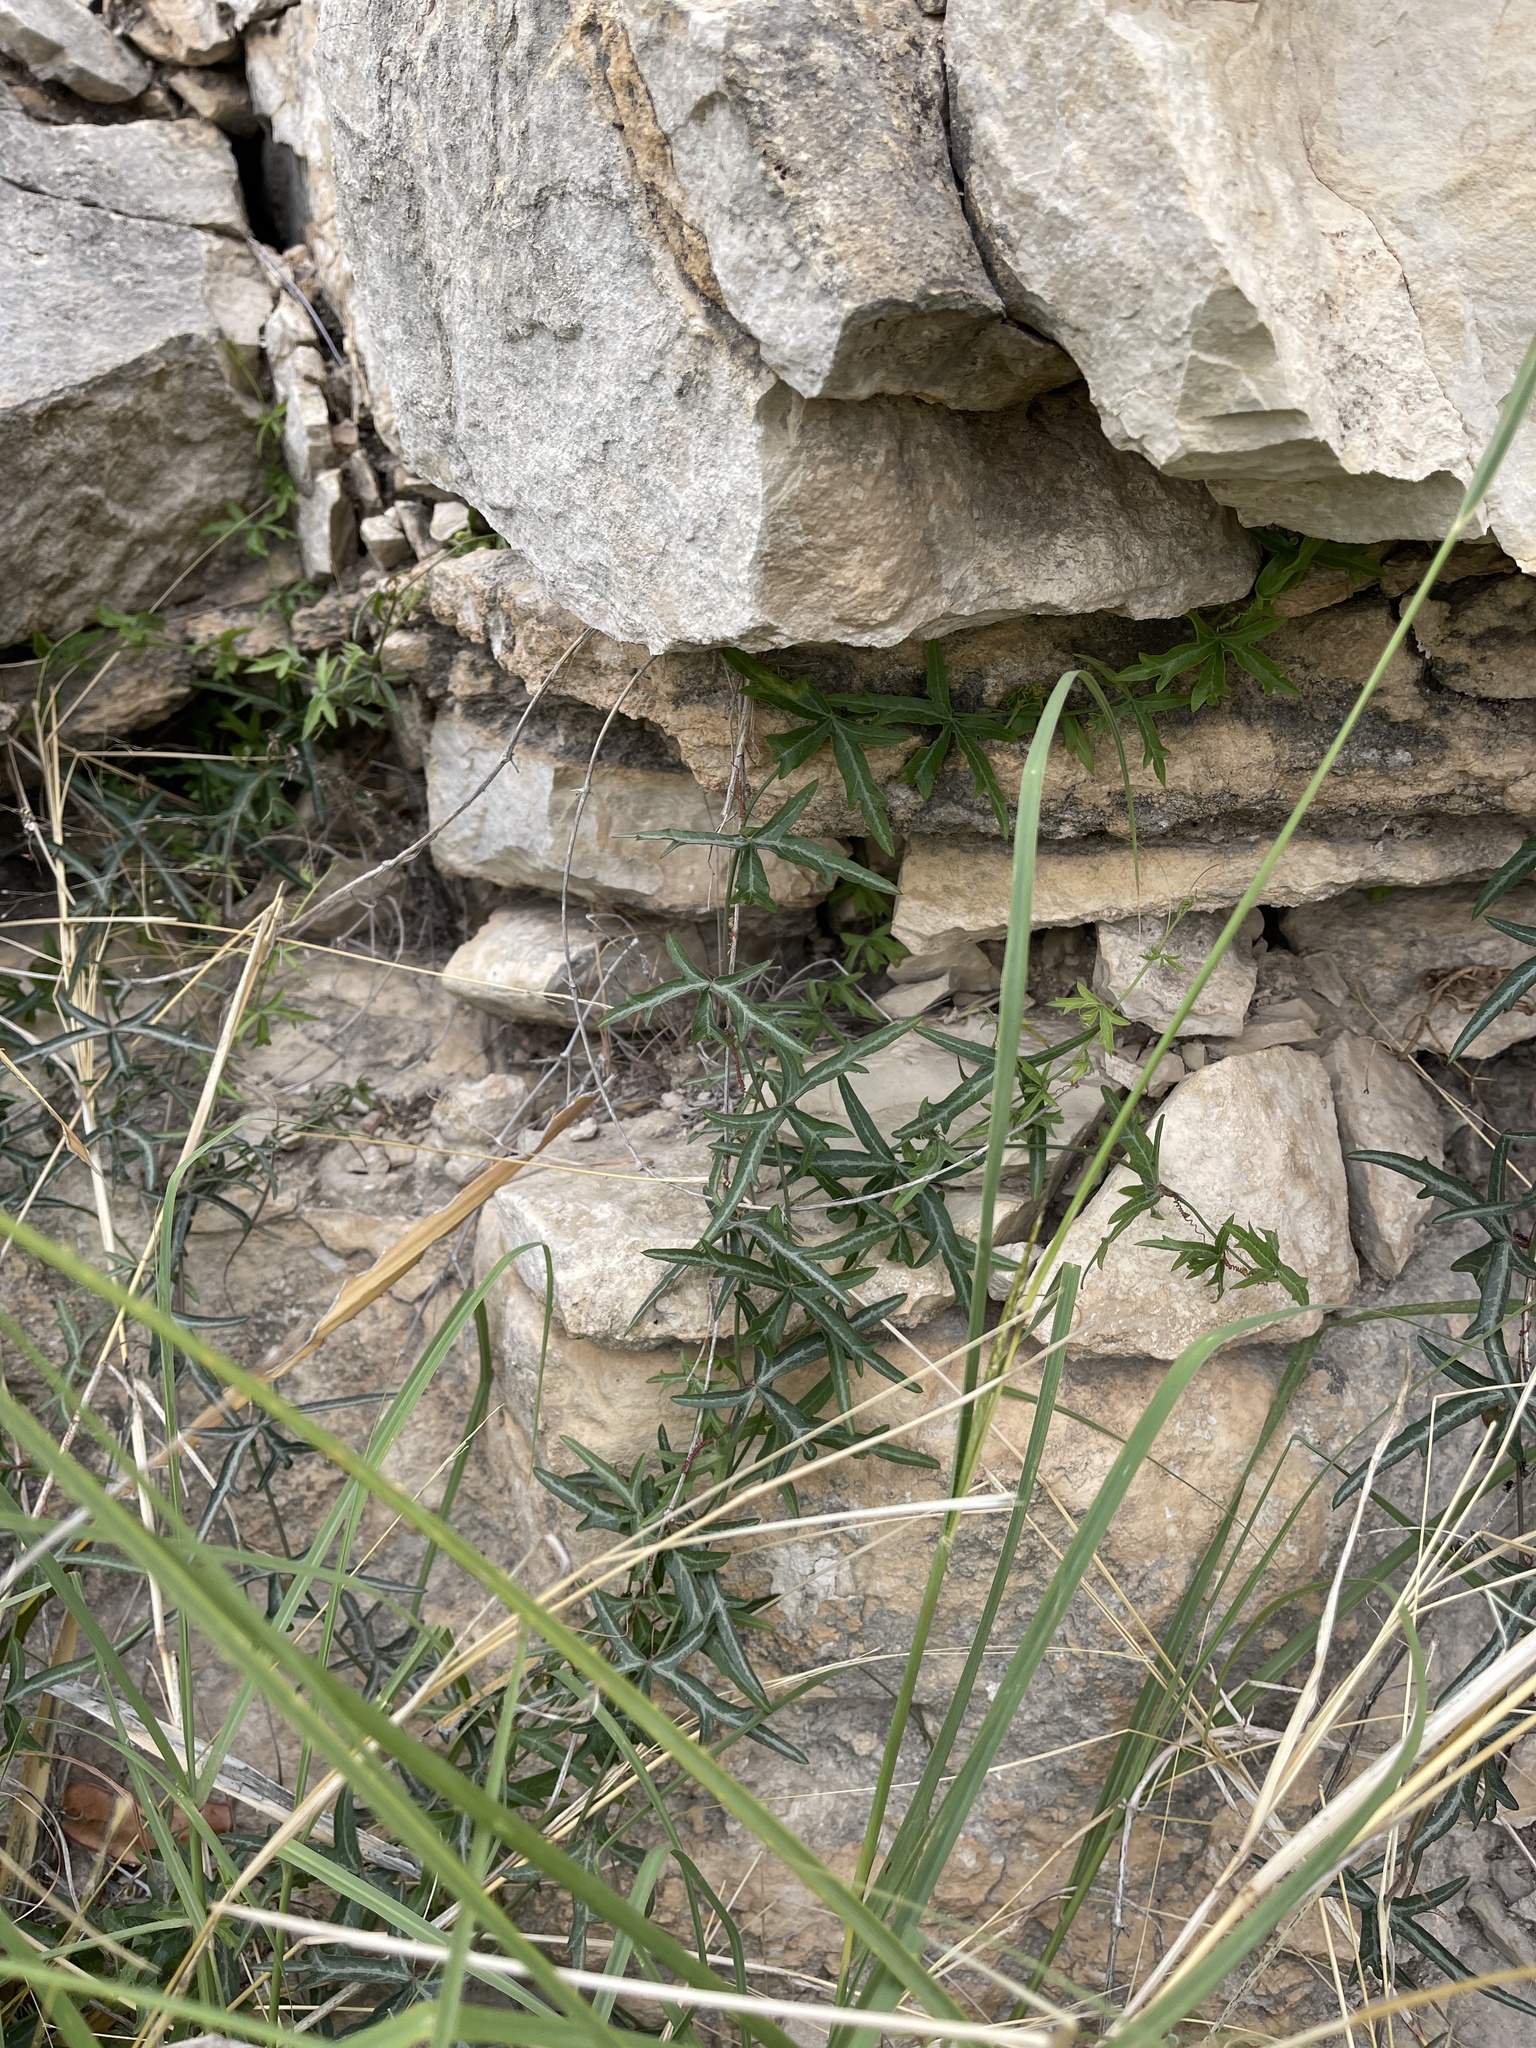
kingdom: Plantae
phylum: Tracheophyta
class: Magnoliopsida
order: Malpighiales
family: Passifloraceae
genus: Passiflora
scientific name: Passiflora tenuiloba
